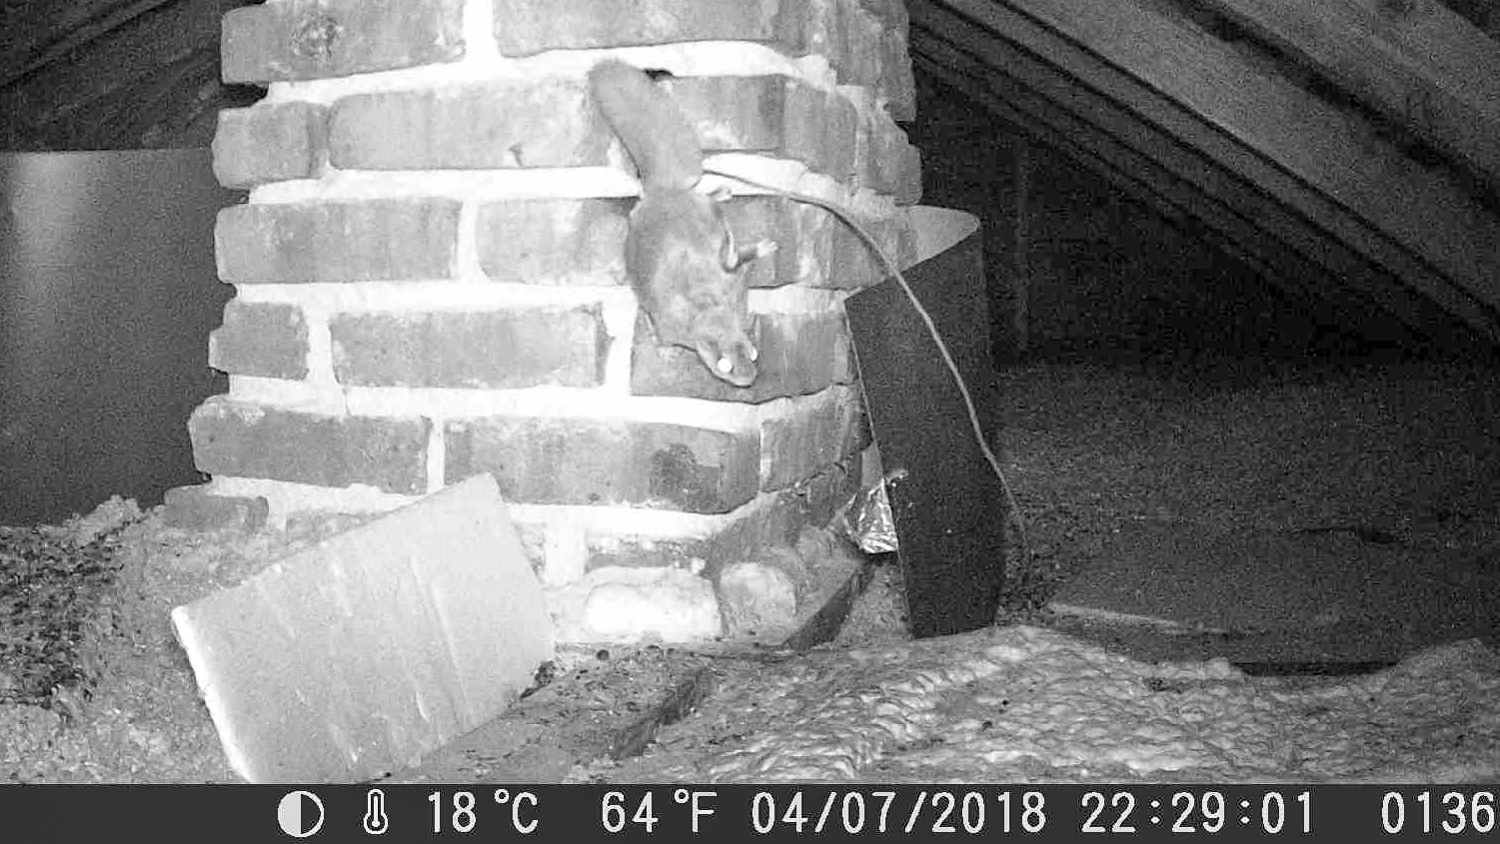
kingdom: Animalia
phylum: Chordata
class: Mammalia
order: Rodentia
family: Sciuridae
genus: Glaucomys
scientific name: Glaucomys volans
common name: Southern flying squirrel
